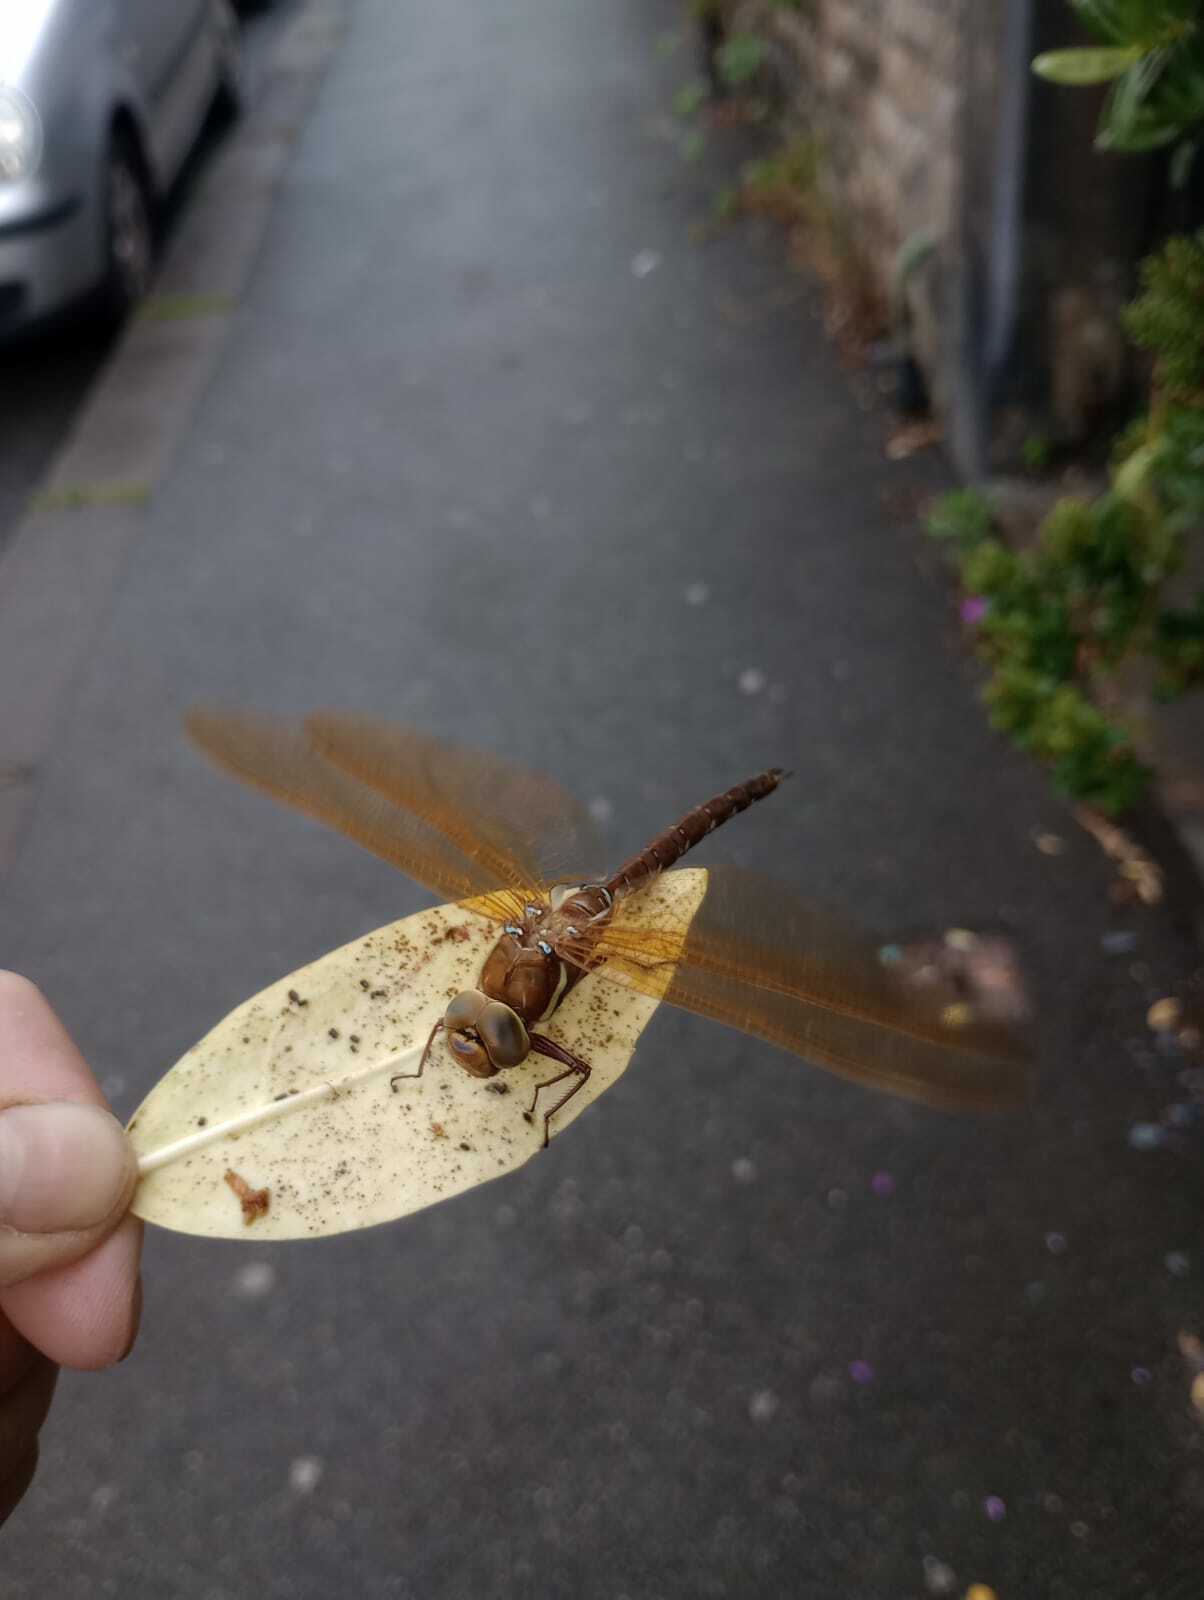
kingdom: Animalia
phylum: Arthropoda
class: Insecta
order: Odonata
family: Aeshnidae
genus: Aeshna
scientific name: Aeshna grandis
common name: Brown hawker
